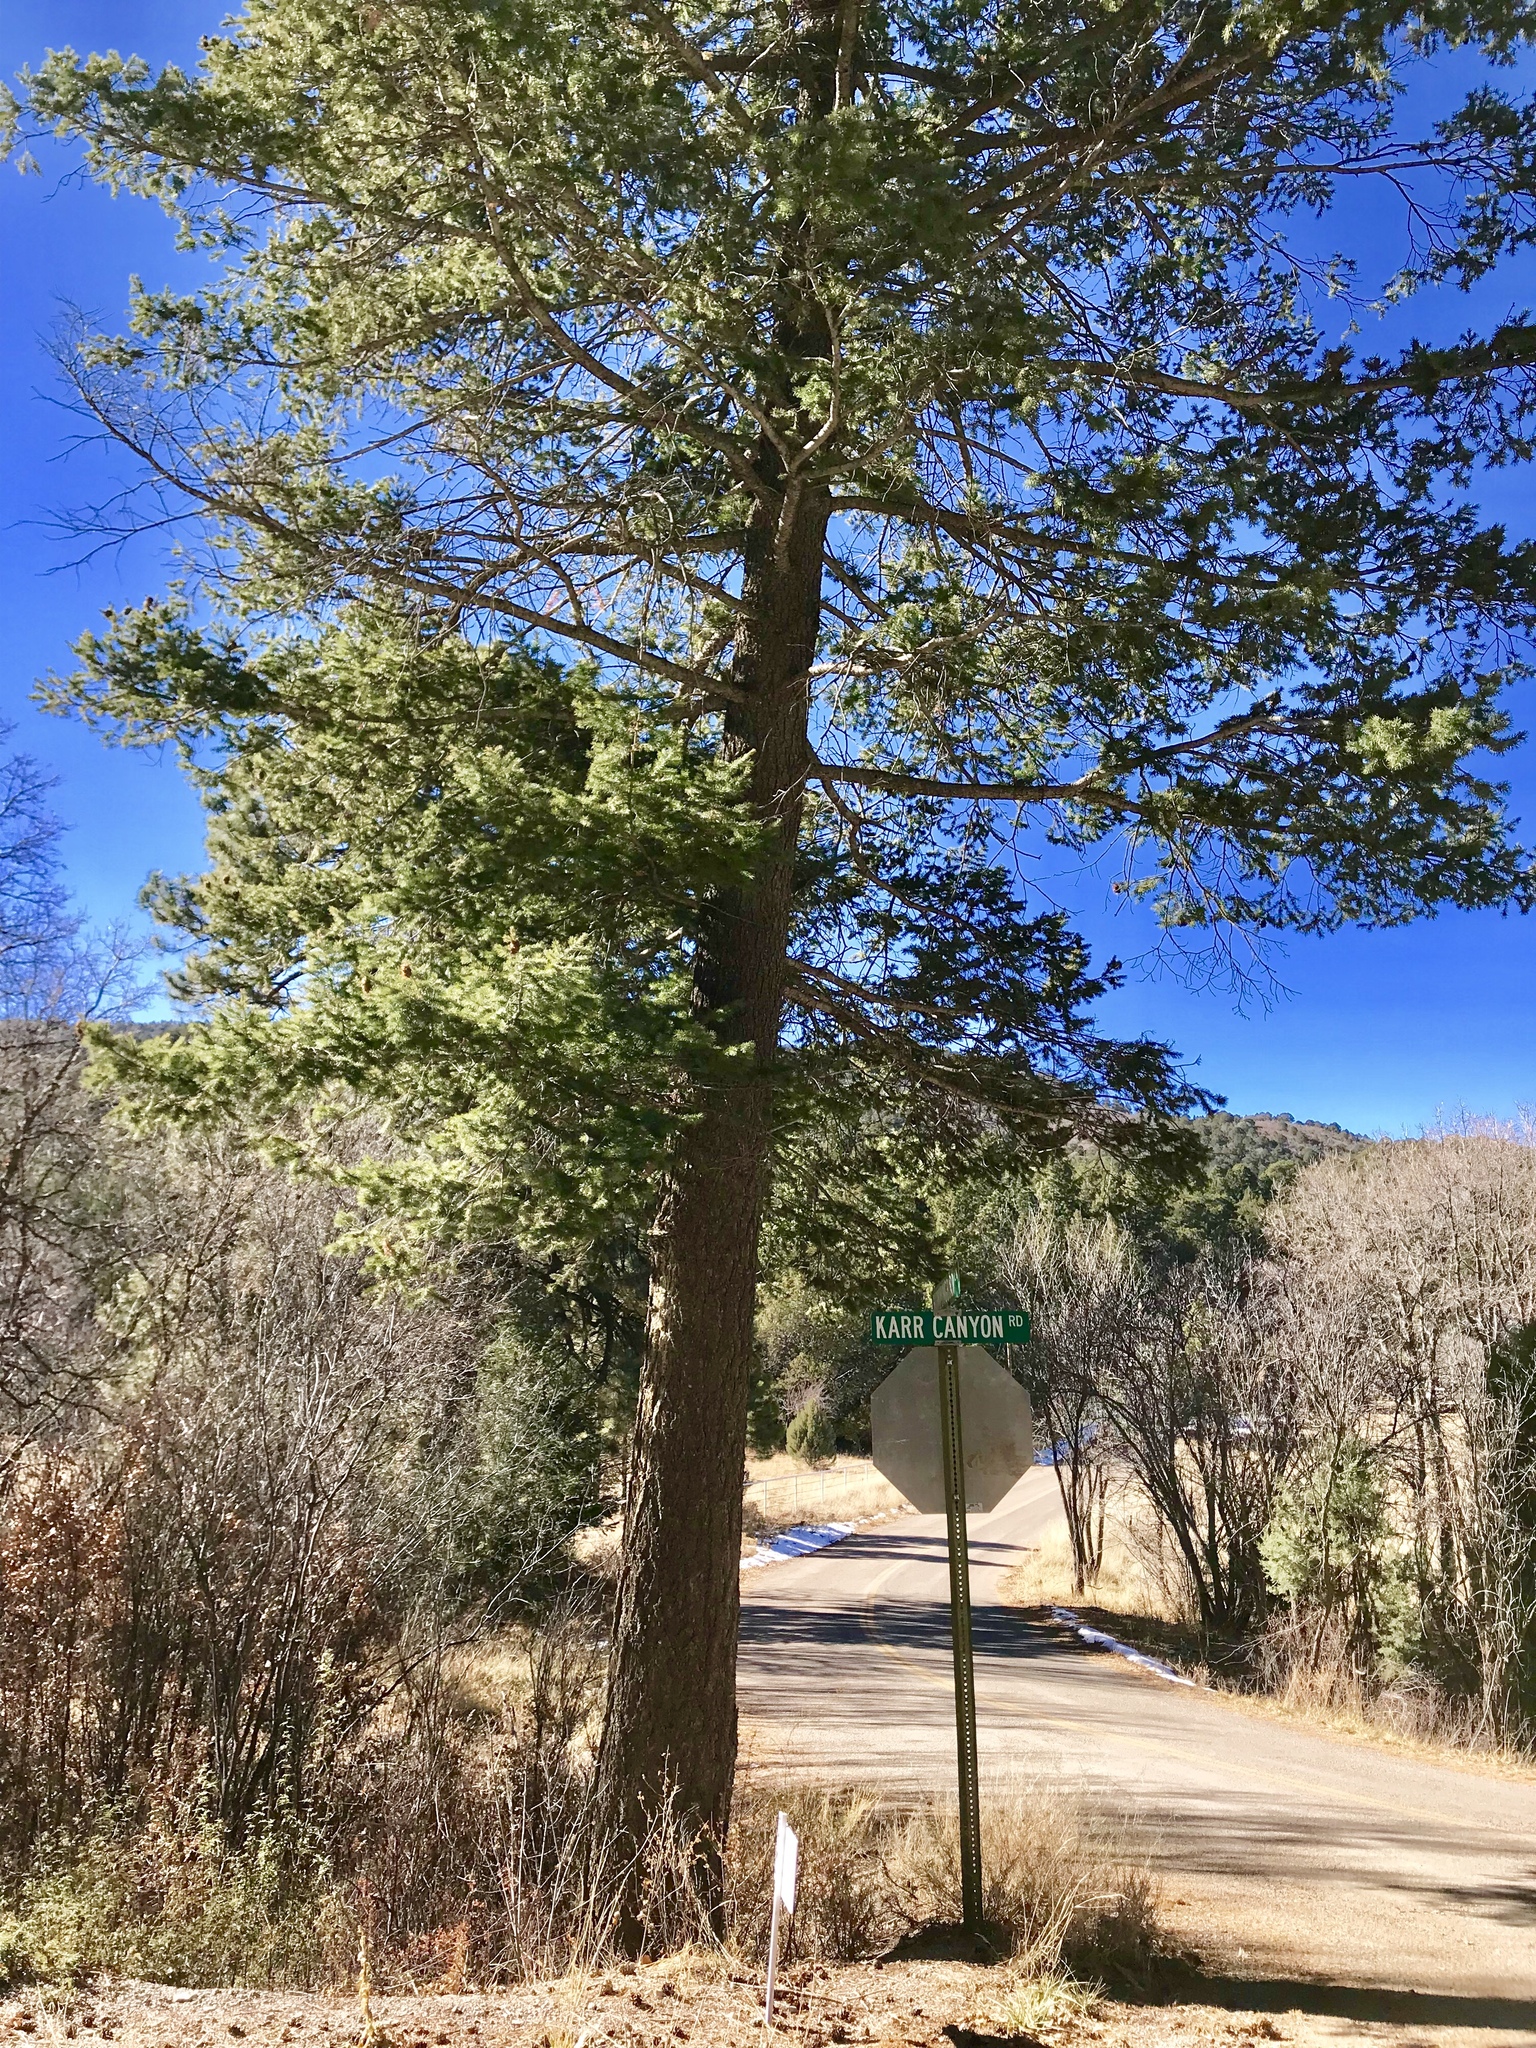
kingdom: Plantae
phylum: Tracheophyta
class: Pinopsida
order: Pinales
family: Pinaceae
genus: Pseudotsuga
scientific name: Pseudotsuga menziesii
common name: Douglas fir
